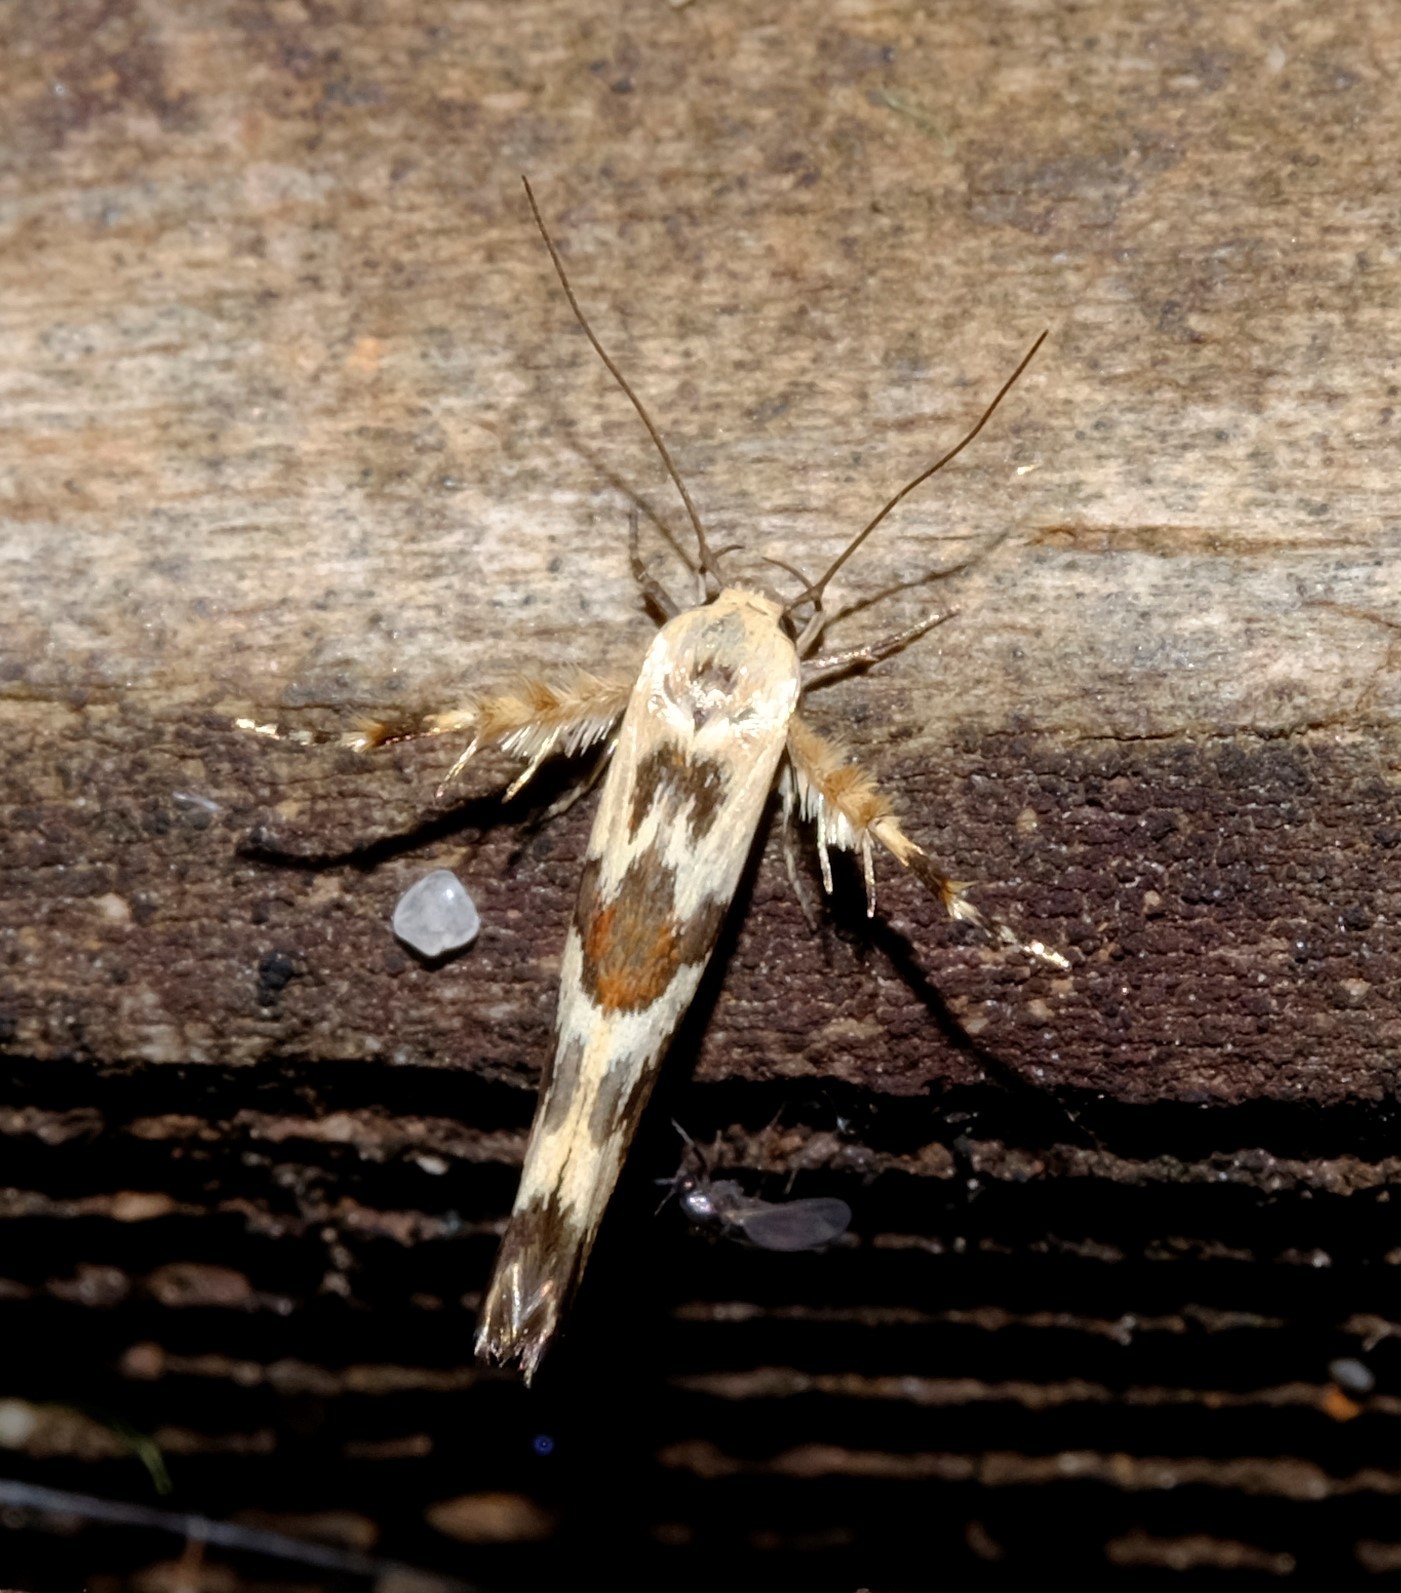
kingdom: Animalia
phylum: Arthropoda
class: Insecta
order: Lepidoptera
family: Stathmopodidae
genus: Stathmopoda
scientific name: Stathmopoda melanochra
